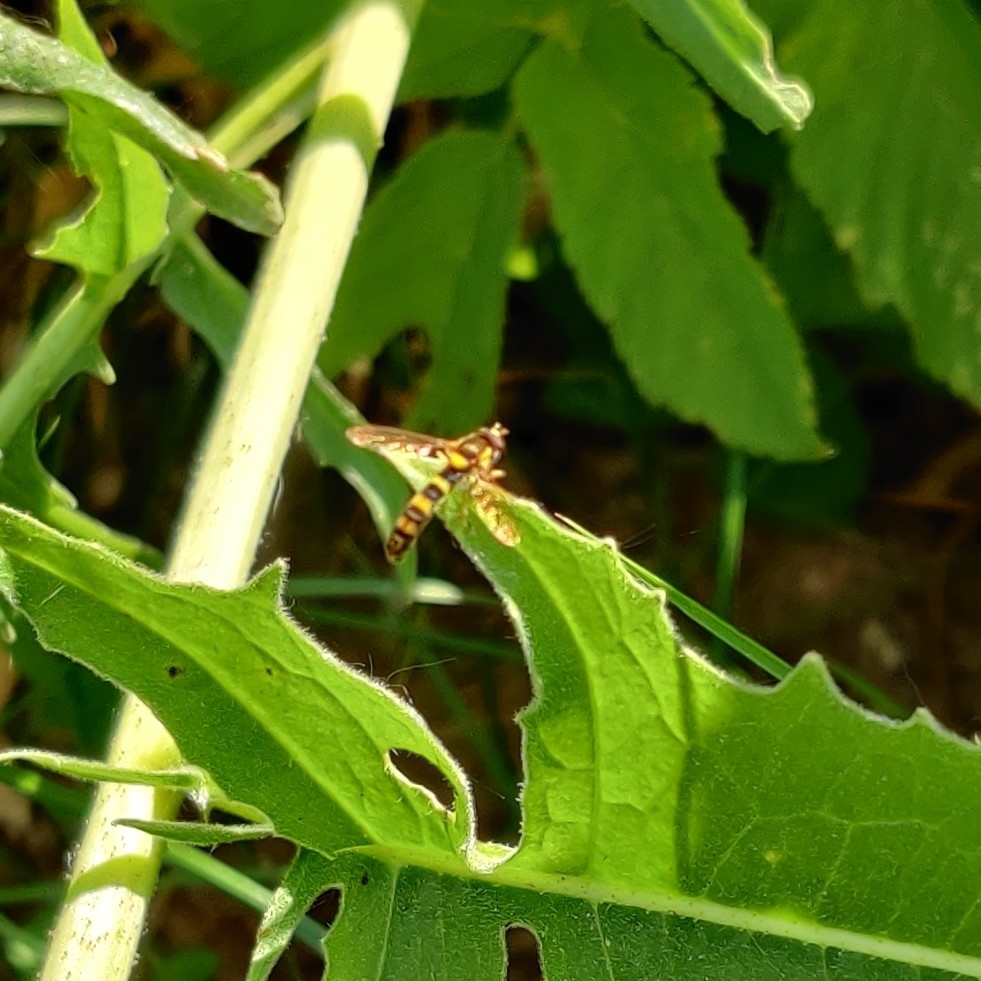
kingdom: Animalia
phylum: Arthropoda
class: Insecta
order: Diptera
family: Syrphidae
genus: Sphaerophoria
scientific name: Sphaerophoria scripta
